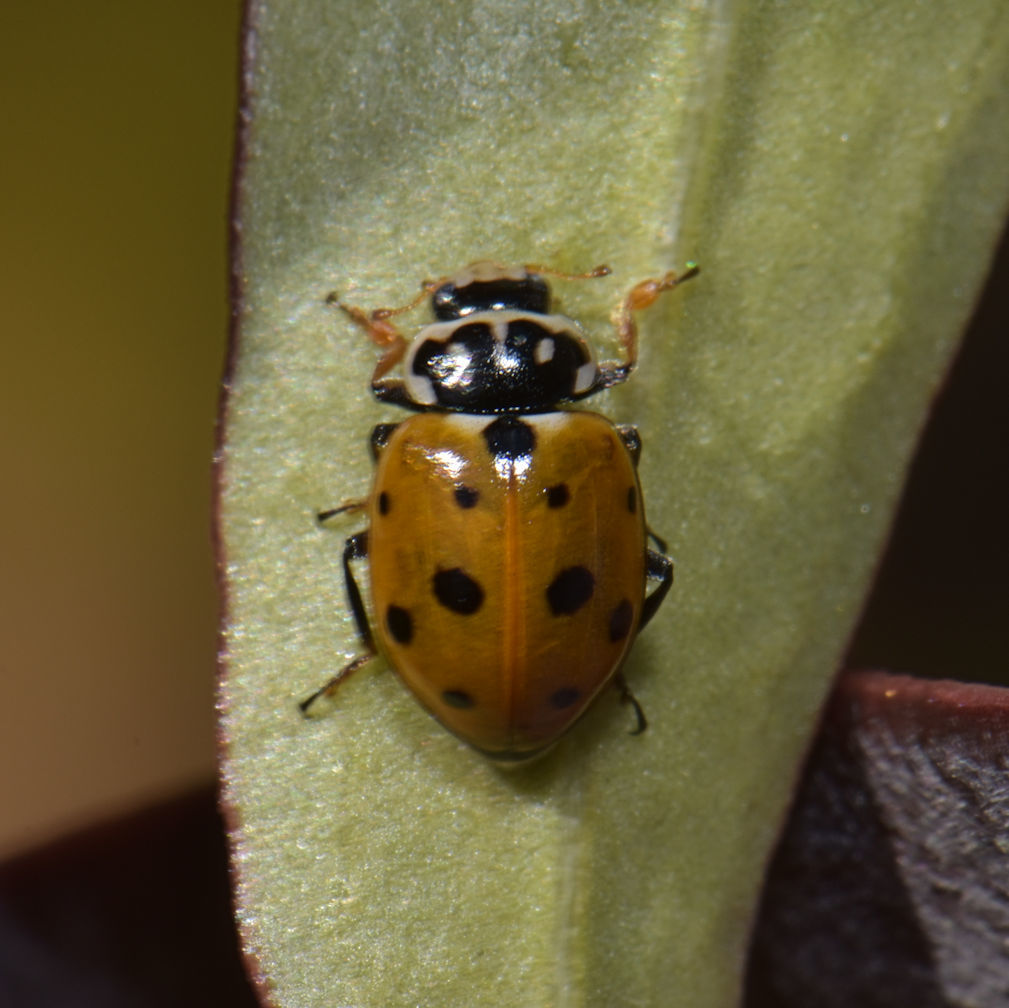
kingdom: Animalia
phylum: Arthropoda
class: Insecta
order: Coleoptera
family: Coccinellidae
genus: Hippodamia
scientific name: Hippodamia variegata
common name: Ladybird beetle
